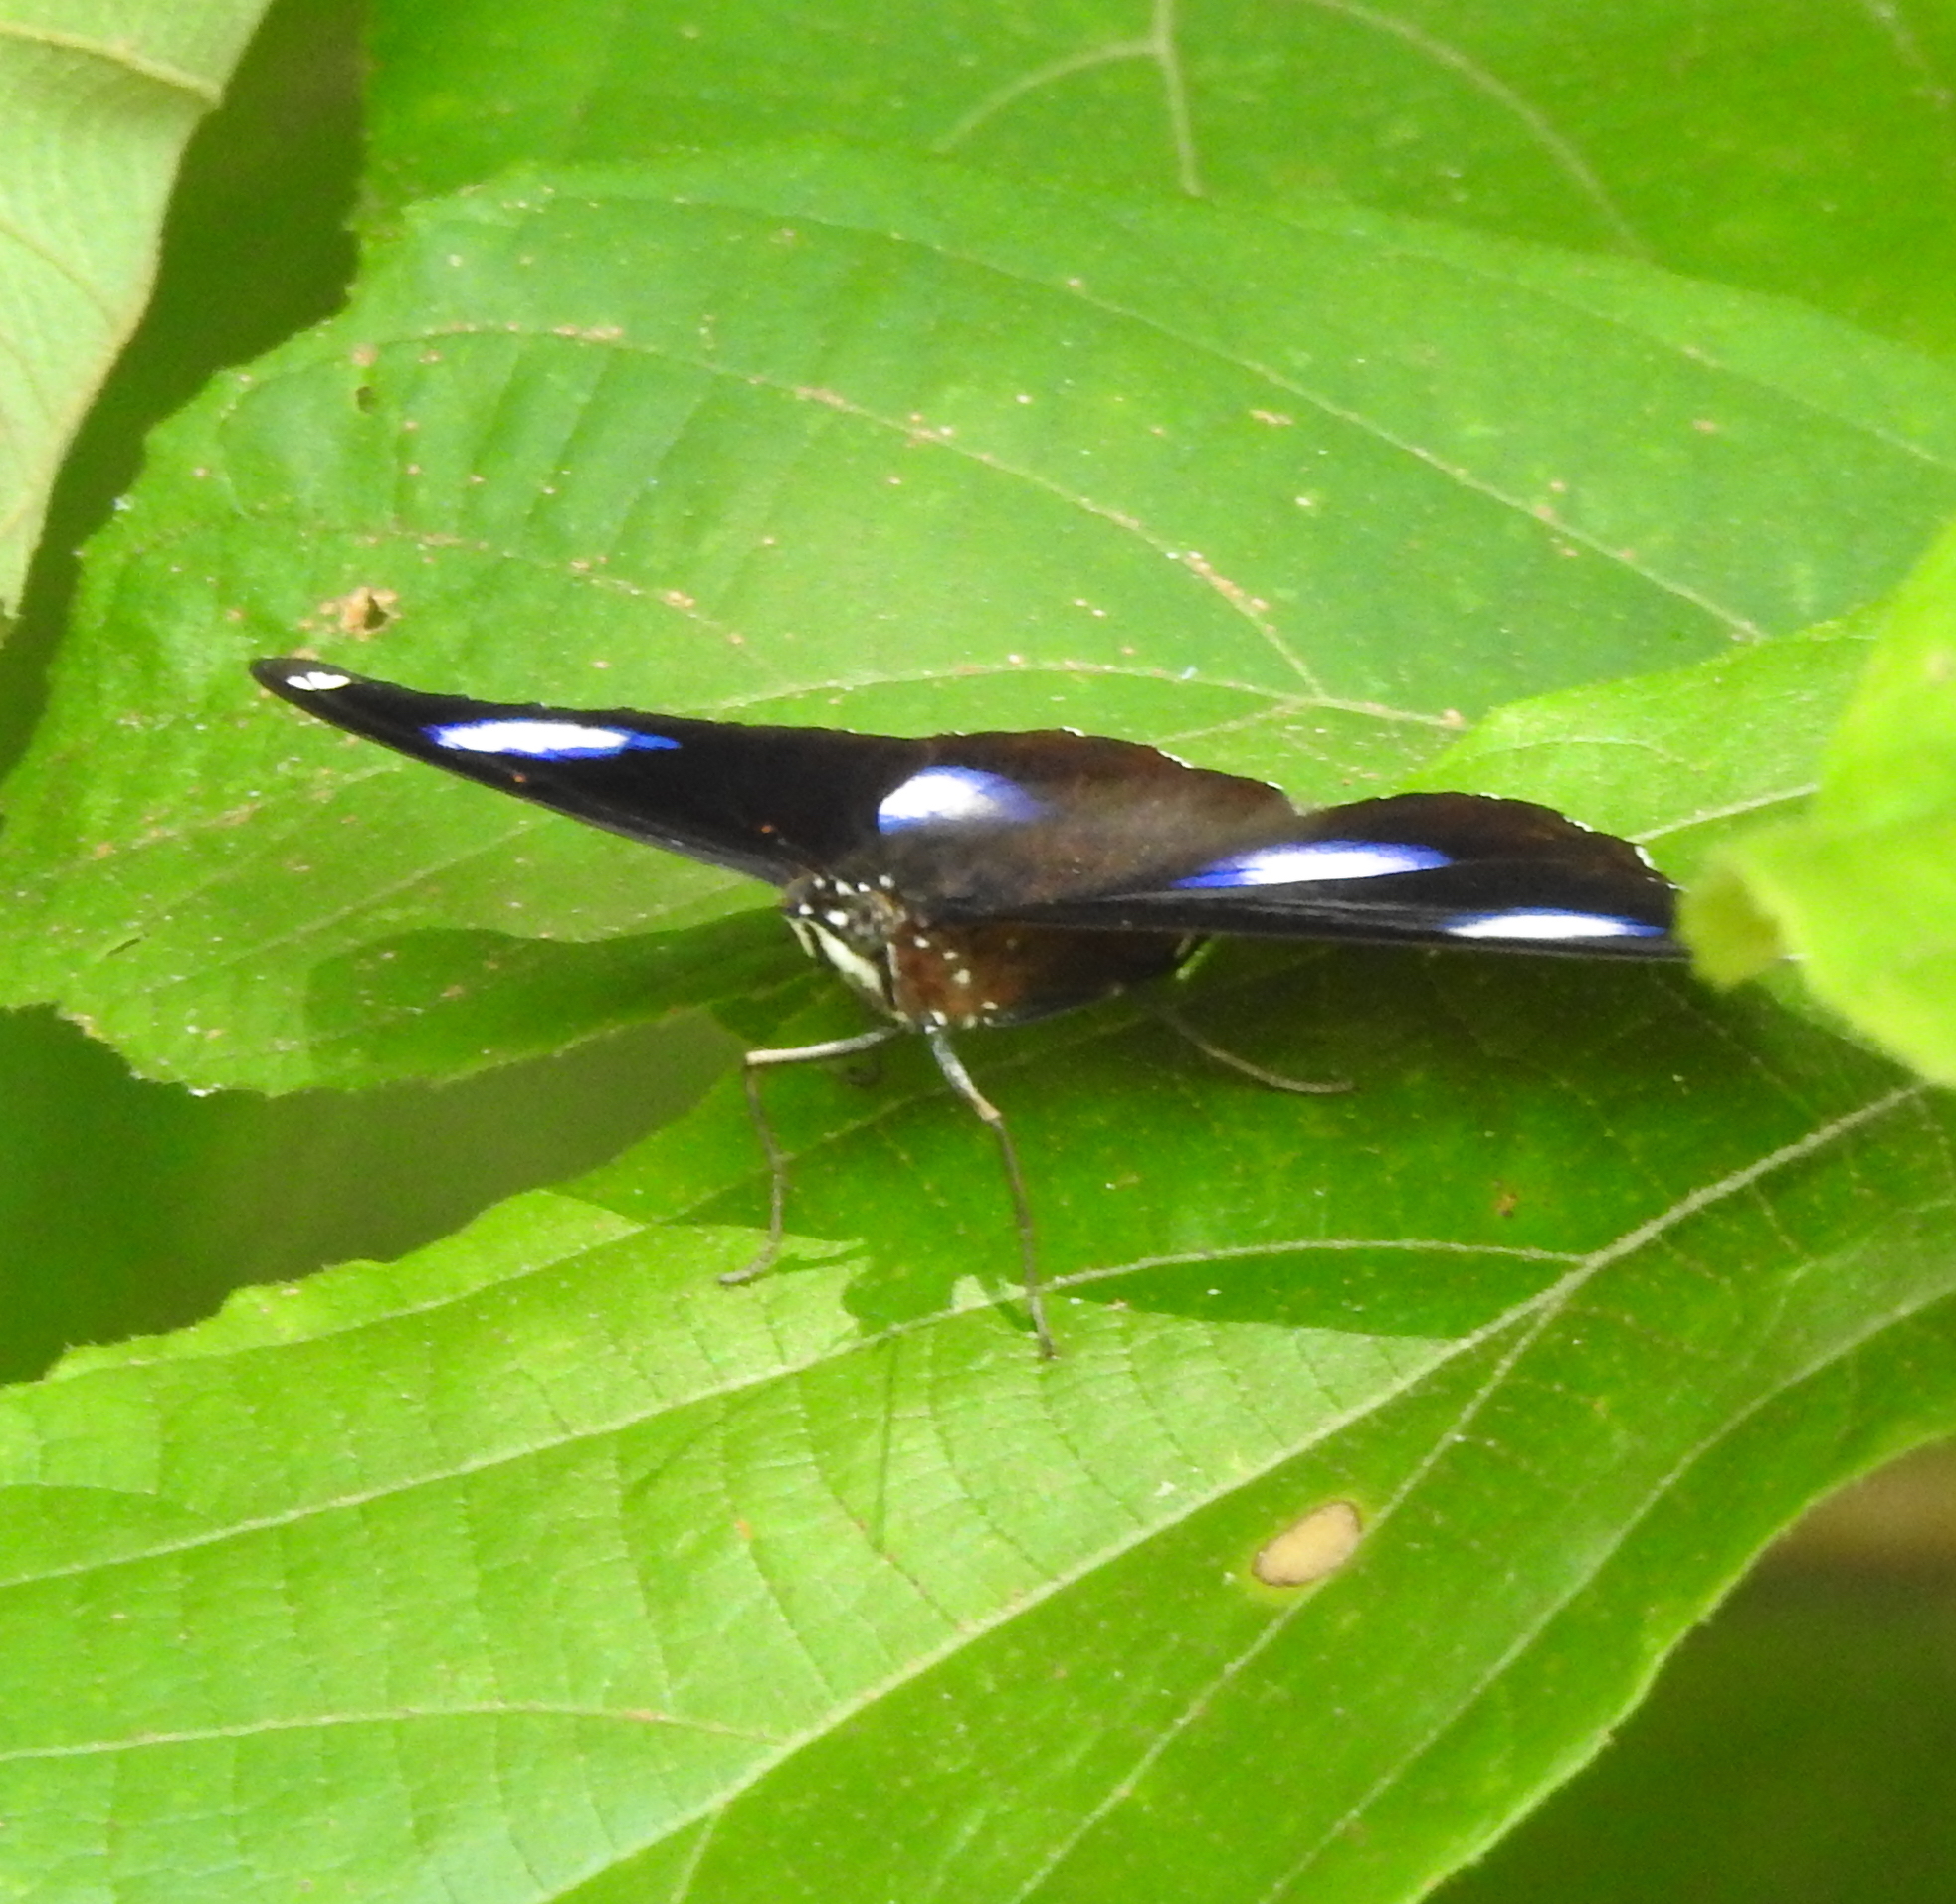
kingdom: Animalia
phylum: Arthropoda
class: Insecta
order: Lepidoptera
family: Nymphalidae
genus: Hypolimnas
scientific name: Hypolimnas bolina
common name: Great eggfly
